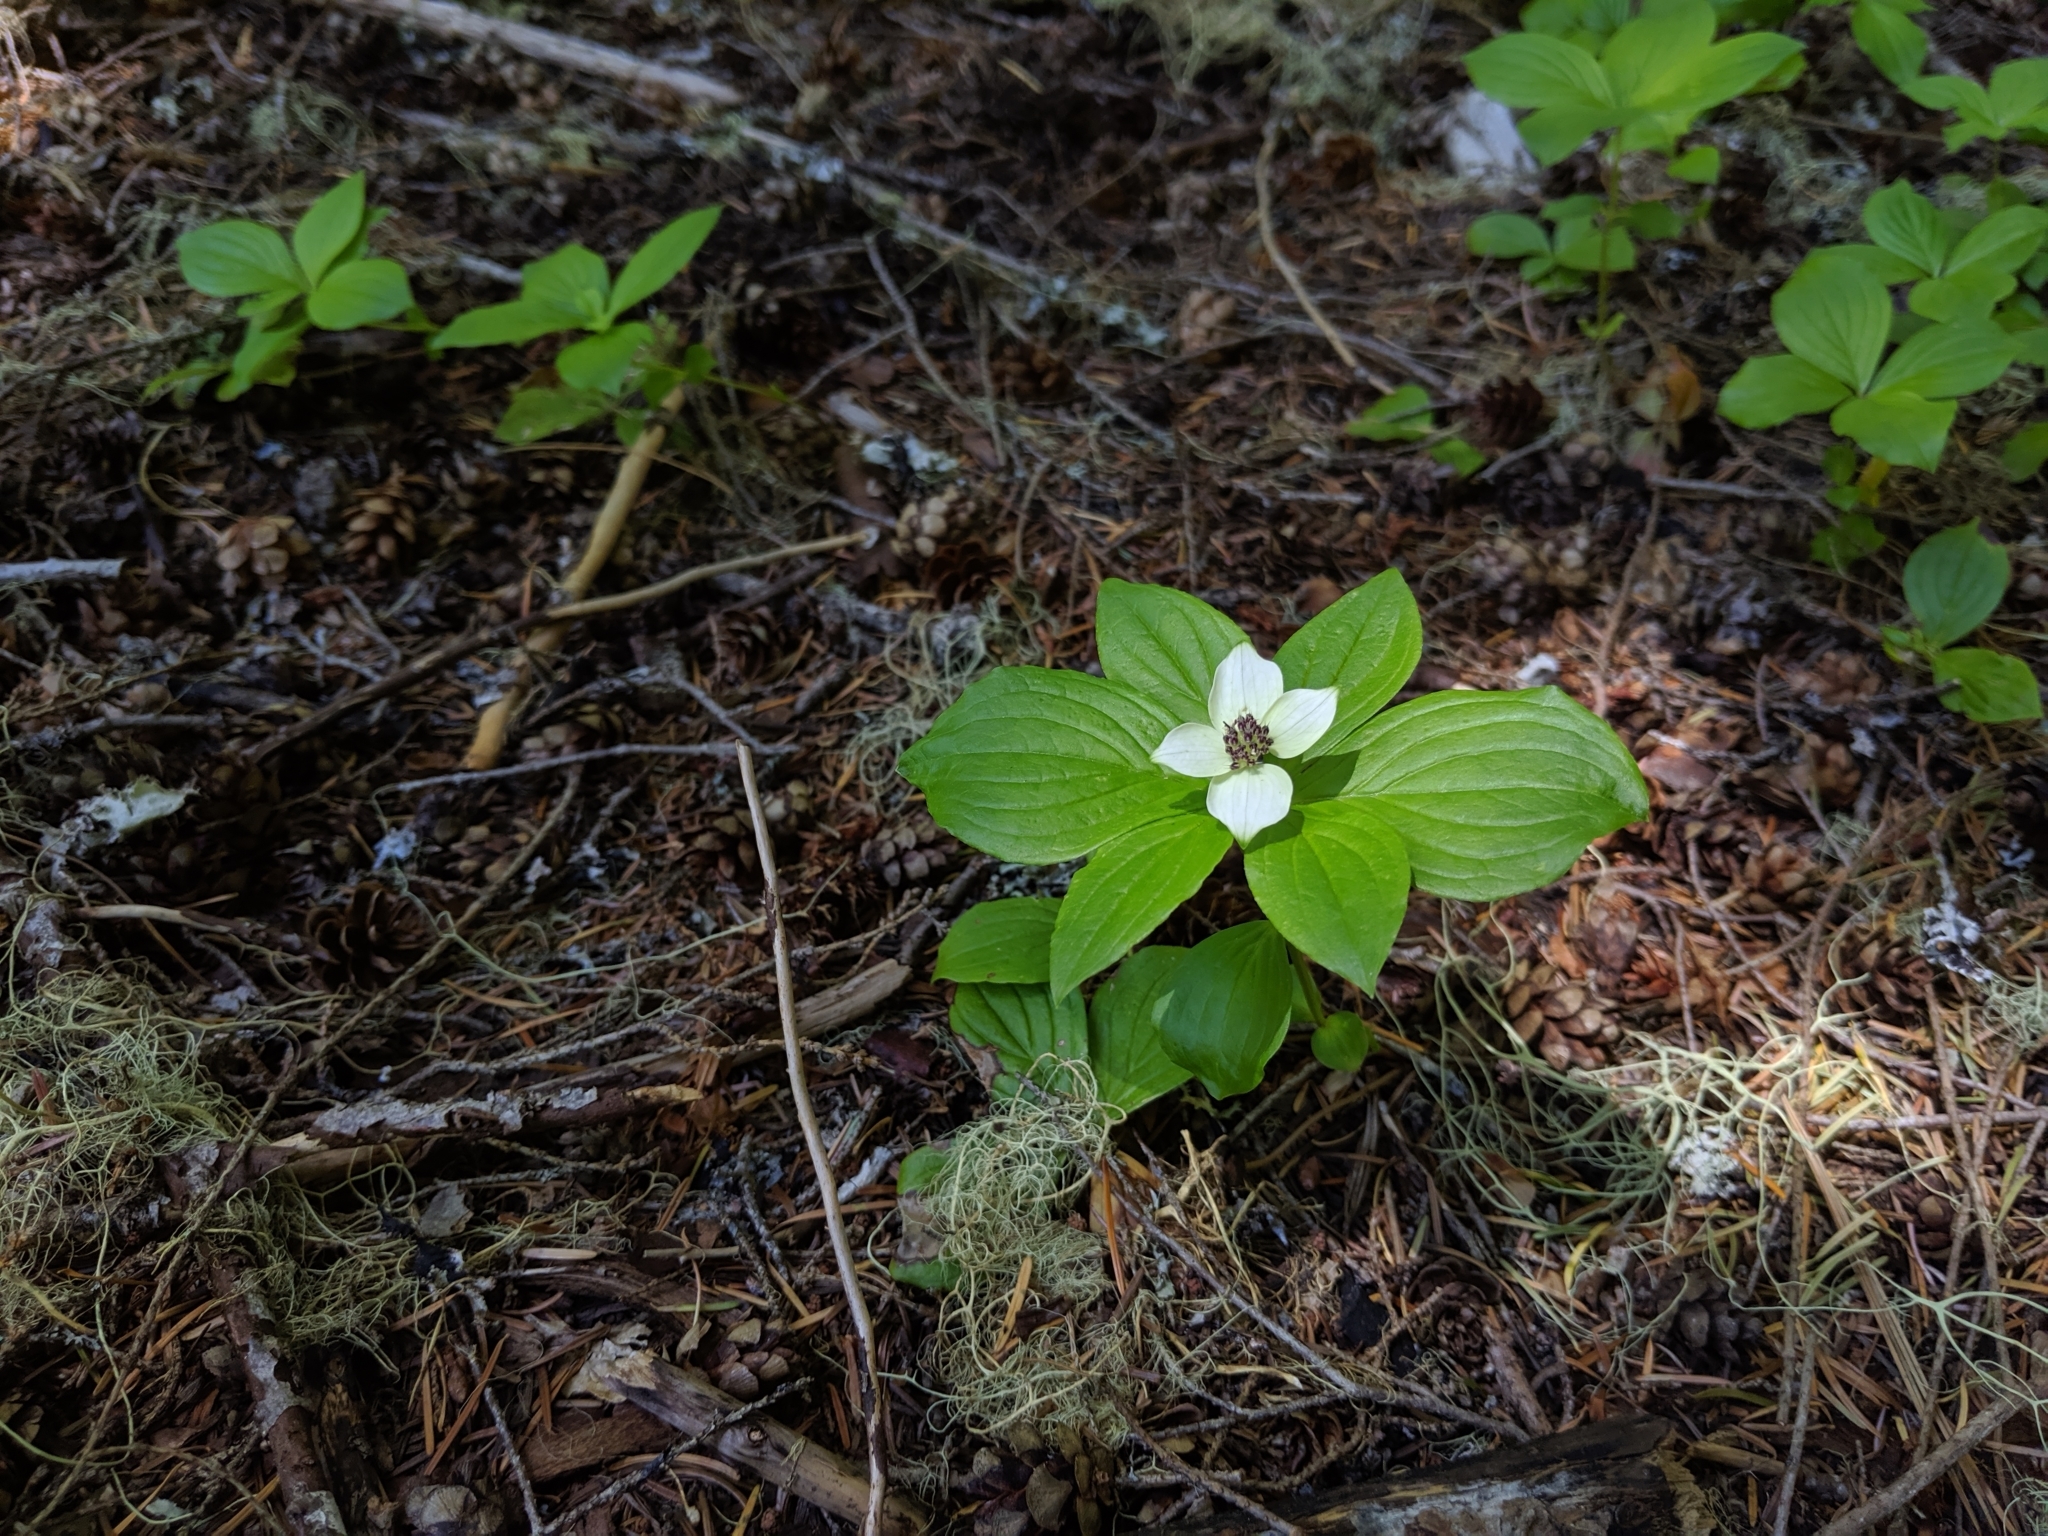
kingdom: Plantae
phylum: Tracheophyta
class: Magnoliopsida
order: Cornales
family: Cornaceae
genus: Cornus
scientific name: Cornus unalaschkensis
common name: Alaska bunchberry
